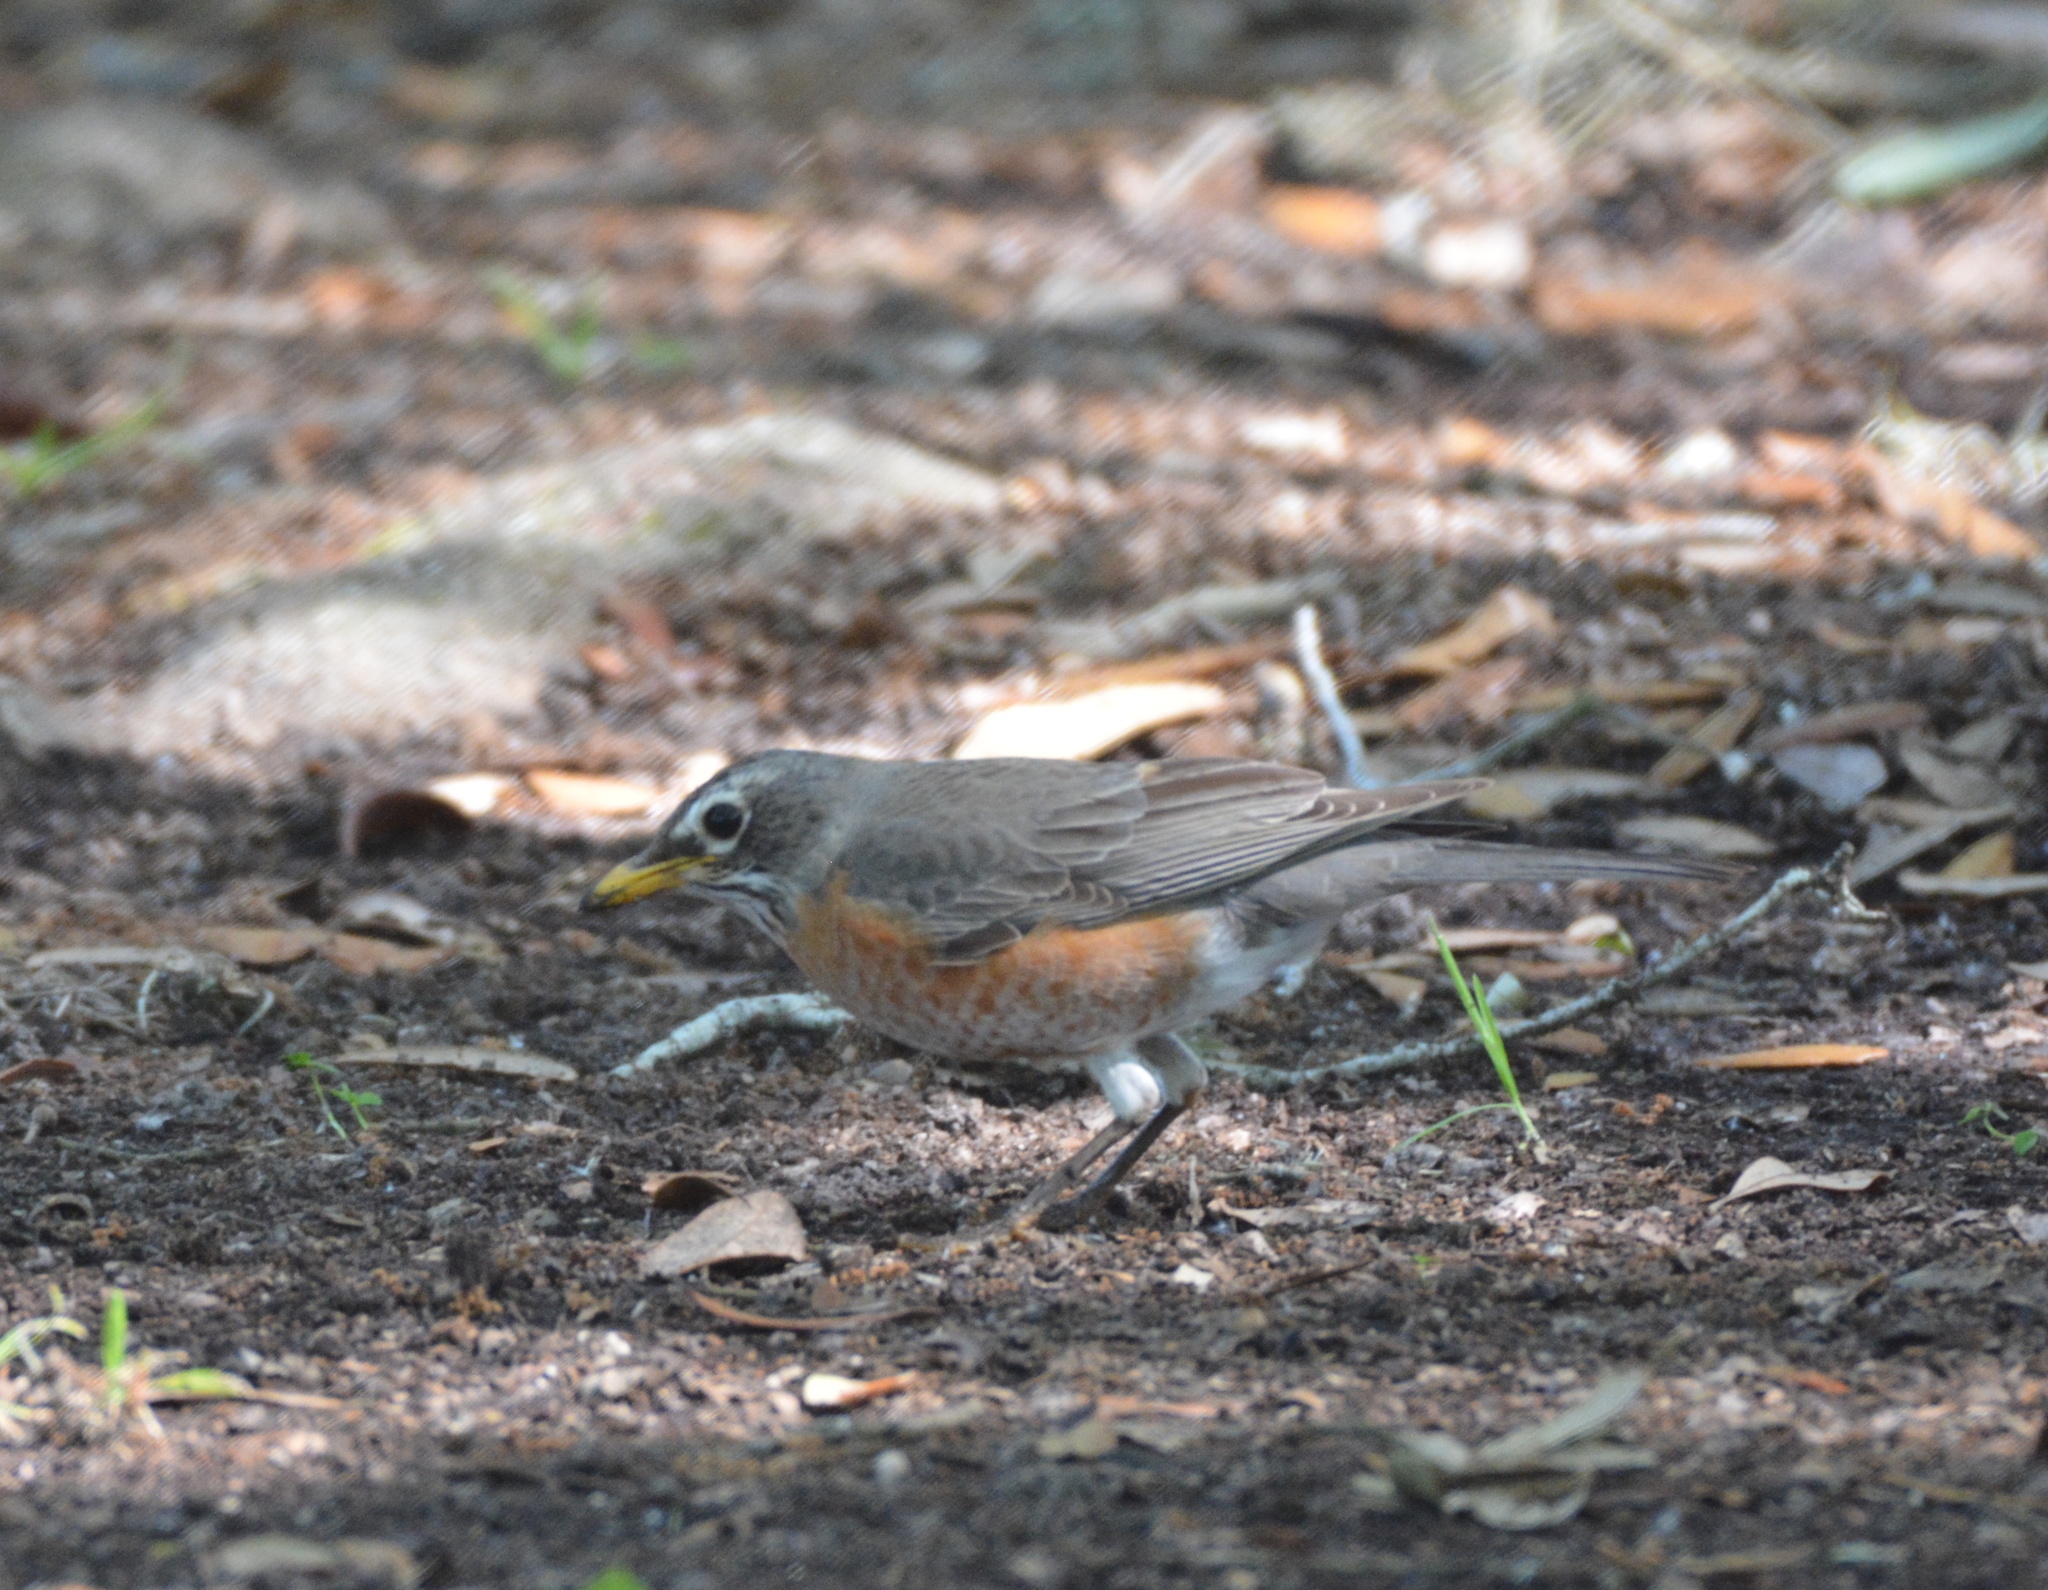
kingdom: Animalia
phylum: Chordata
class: Aves
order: Passeriformes
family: Turdidae
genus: Turdus
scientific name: Turdus migratorius
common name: American robin
